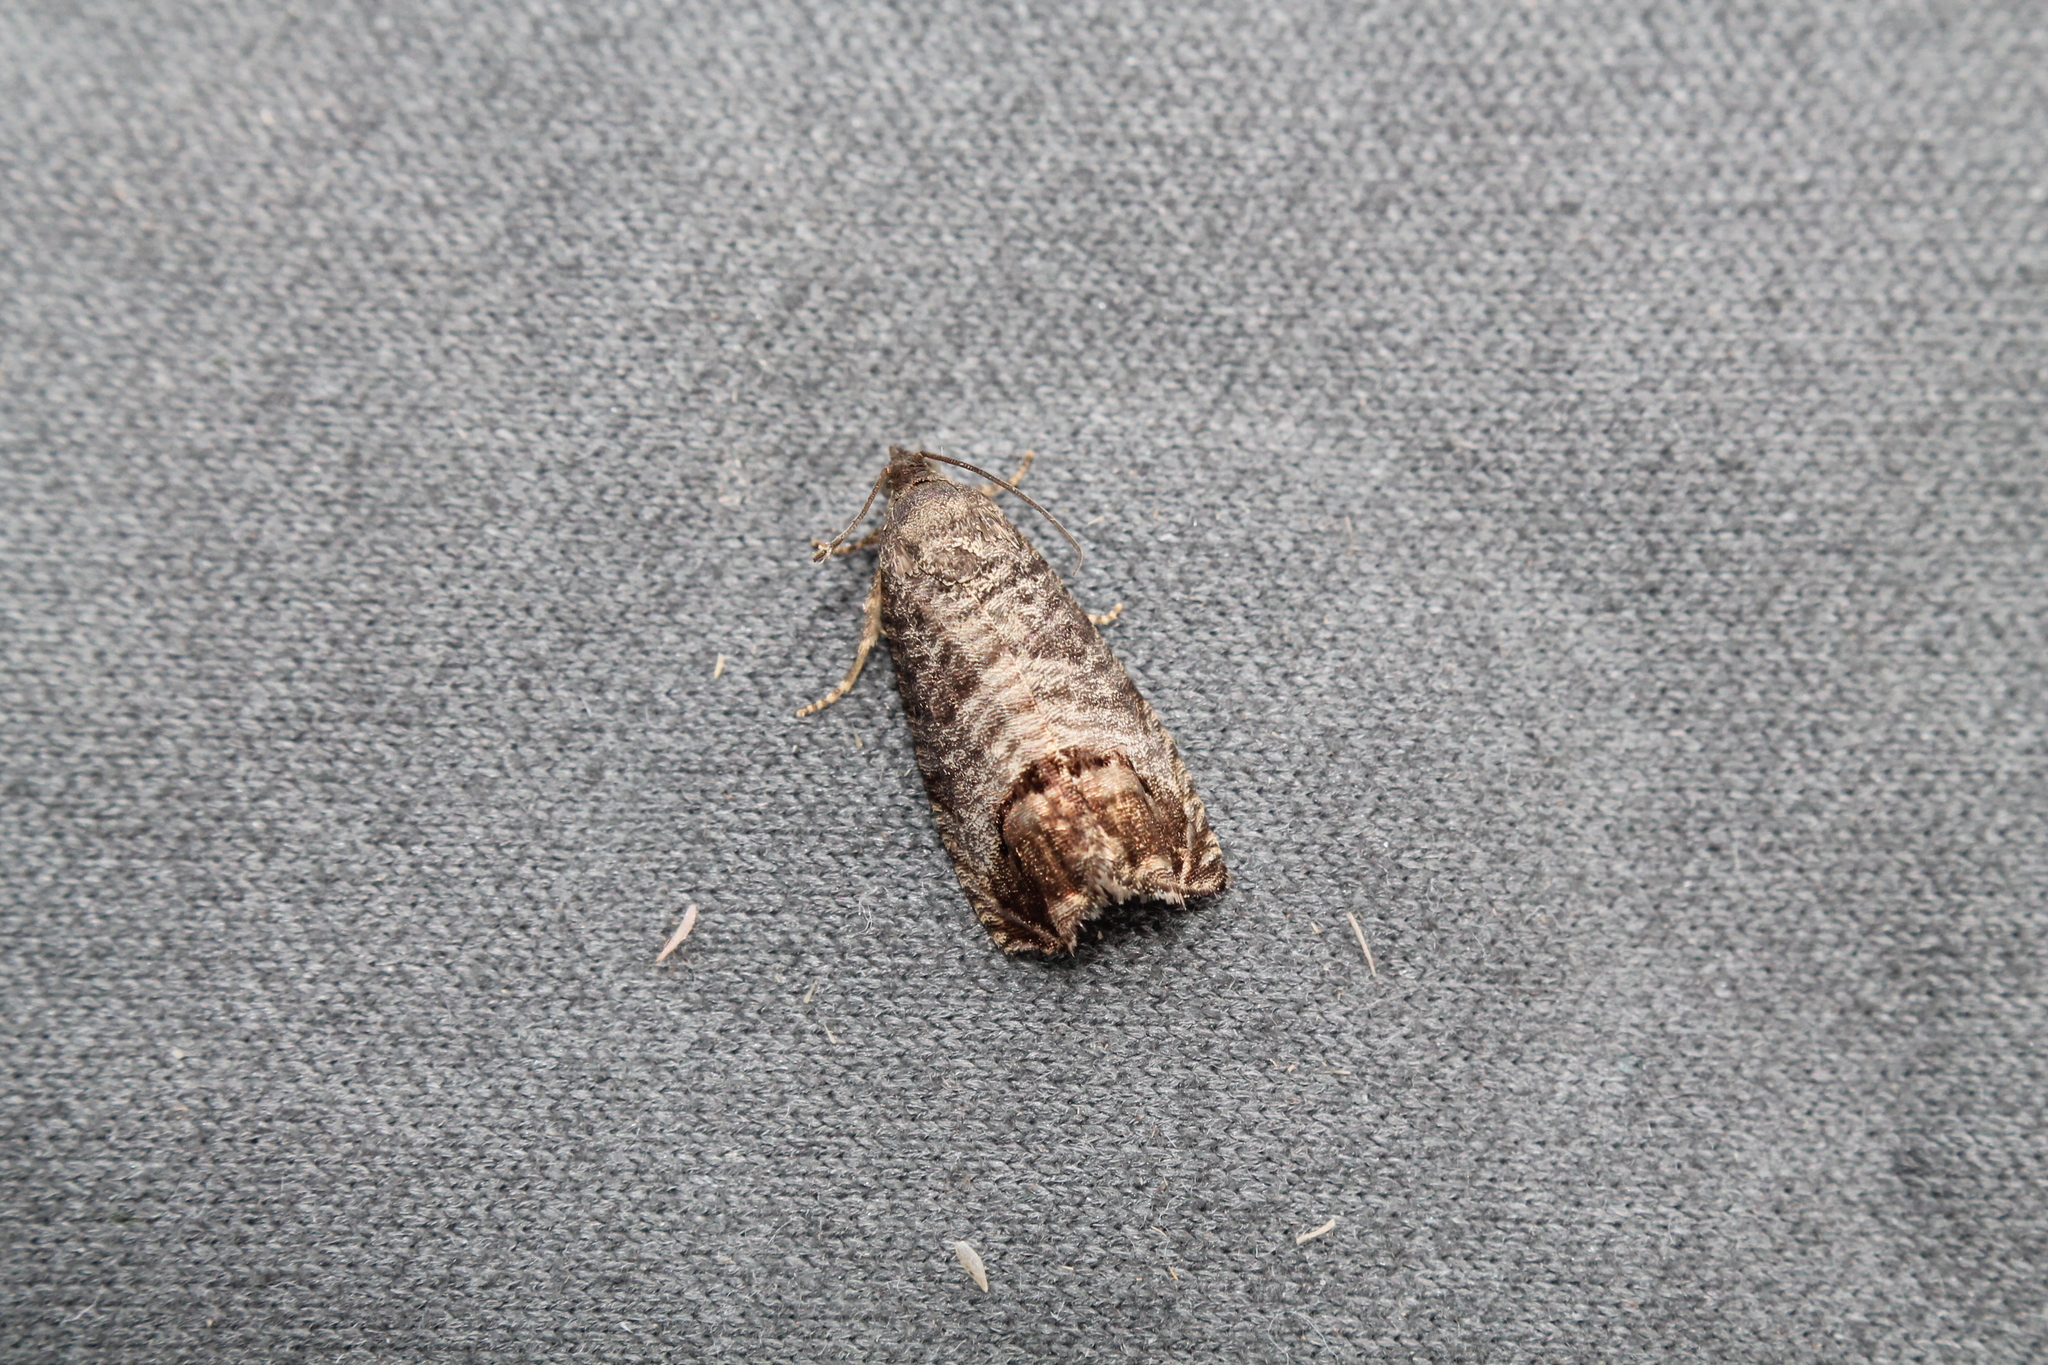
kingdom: Animalia
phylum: Arthropoda
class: Insecta
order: Lepidoptera
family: Tortricidae
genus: Cydia
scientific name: Cydia pomonella
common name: Codling moth
